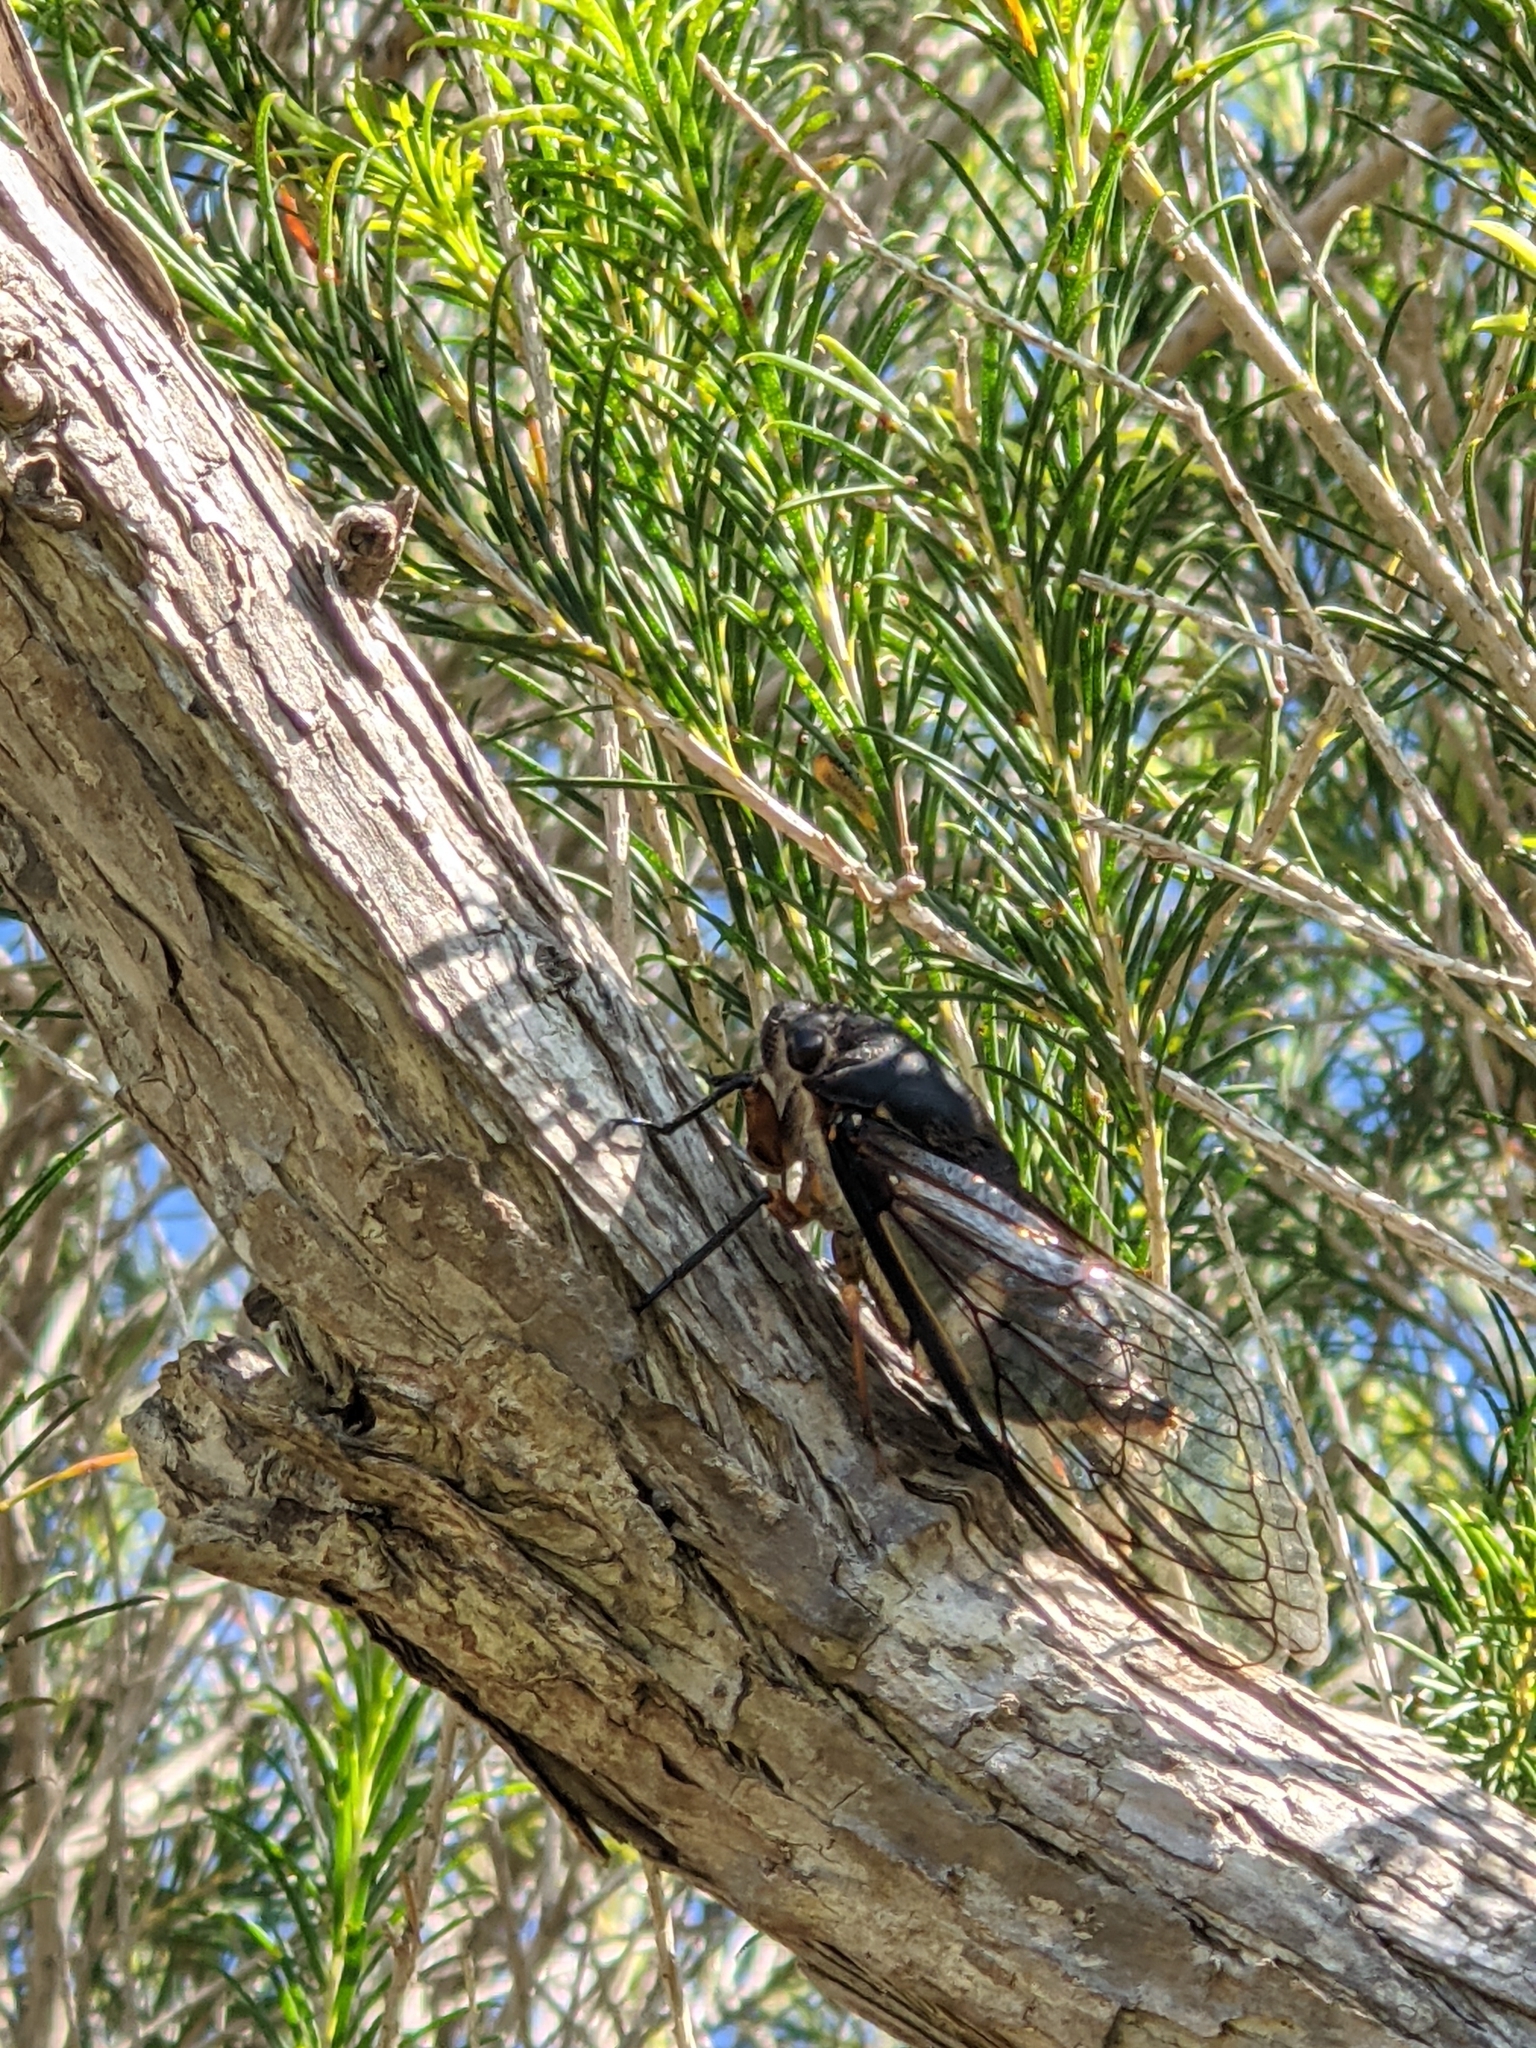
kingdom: Animalia
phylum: Arthropoda
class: Insecta
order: Hemiptera
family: Cicadidae
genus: Psaltoda
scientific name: Psaltoda plaga
